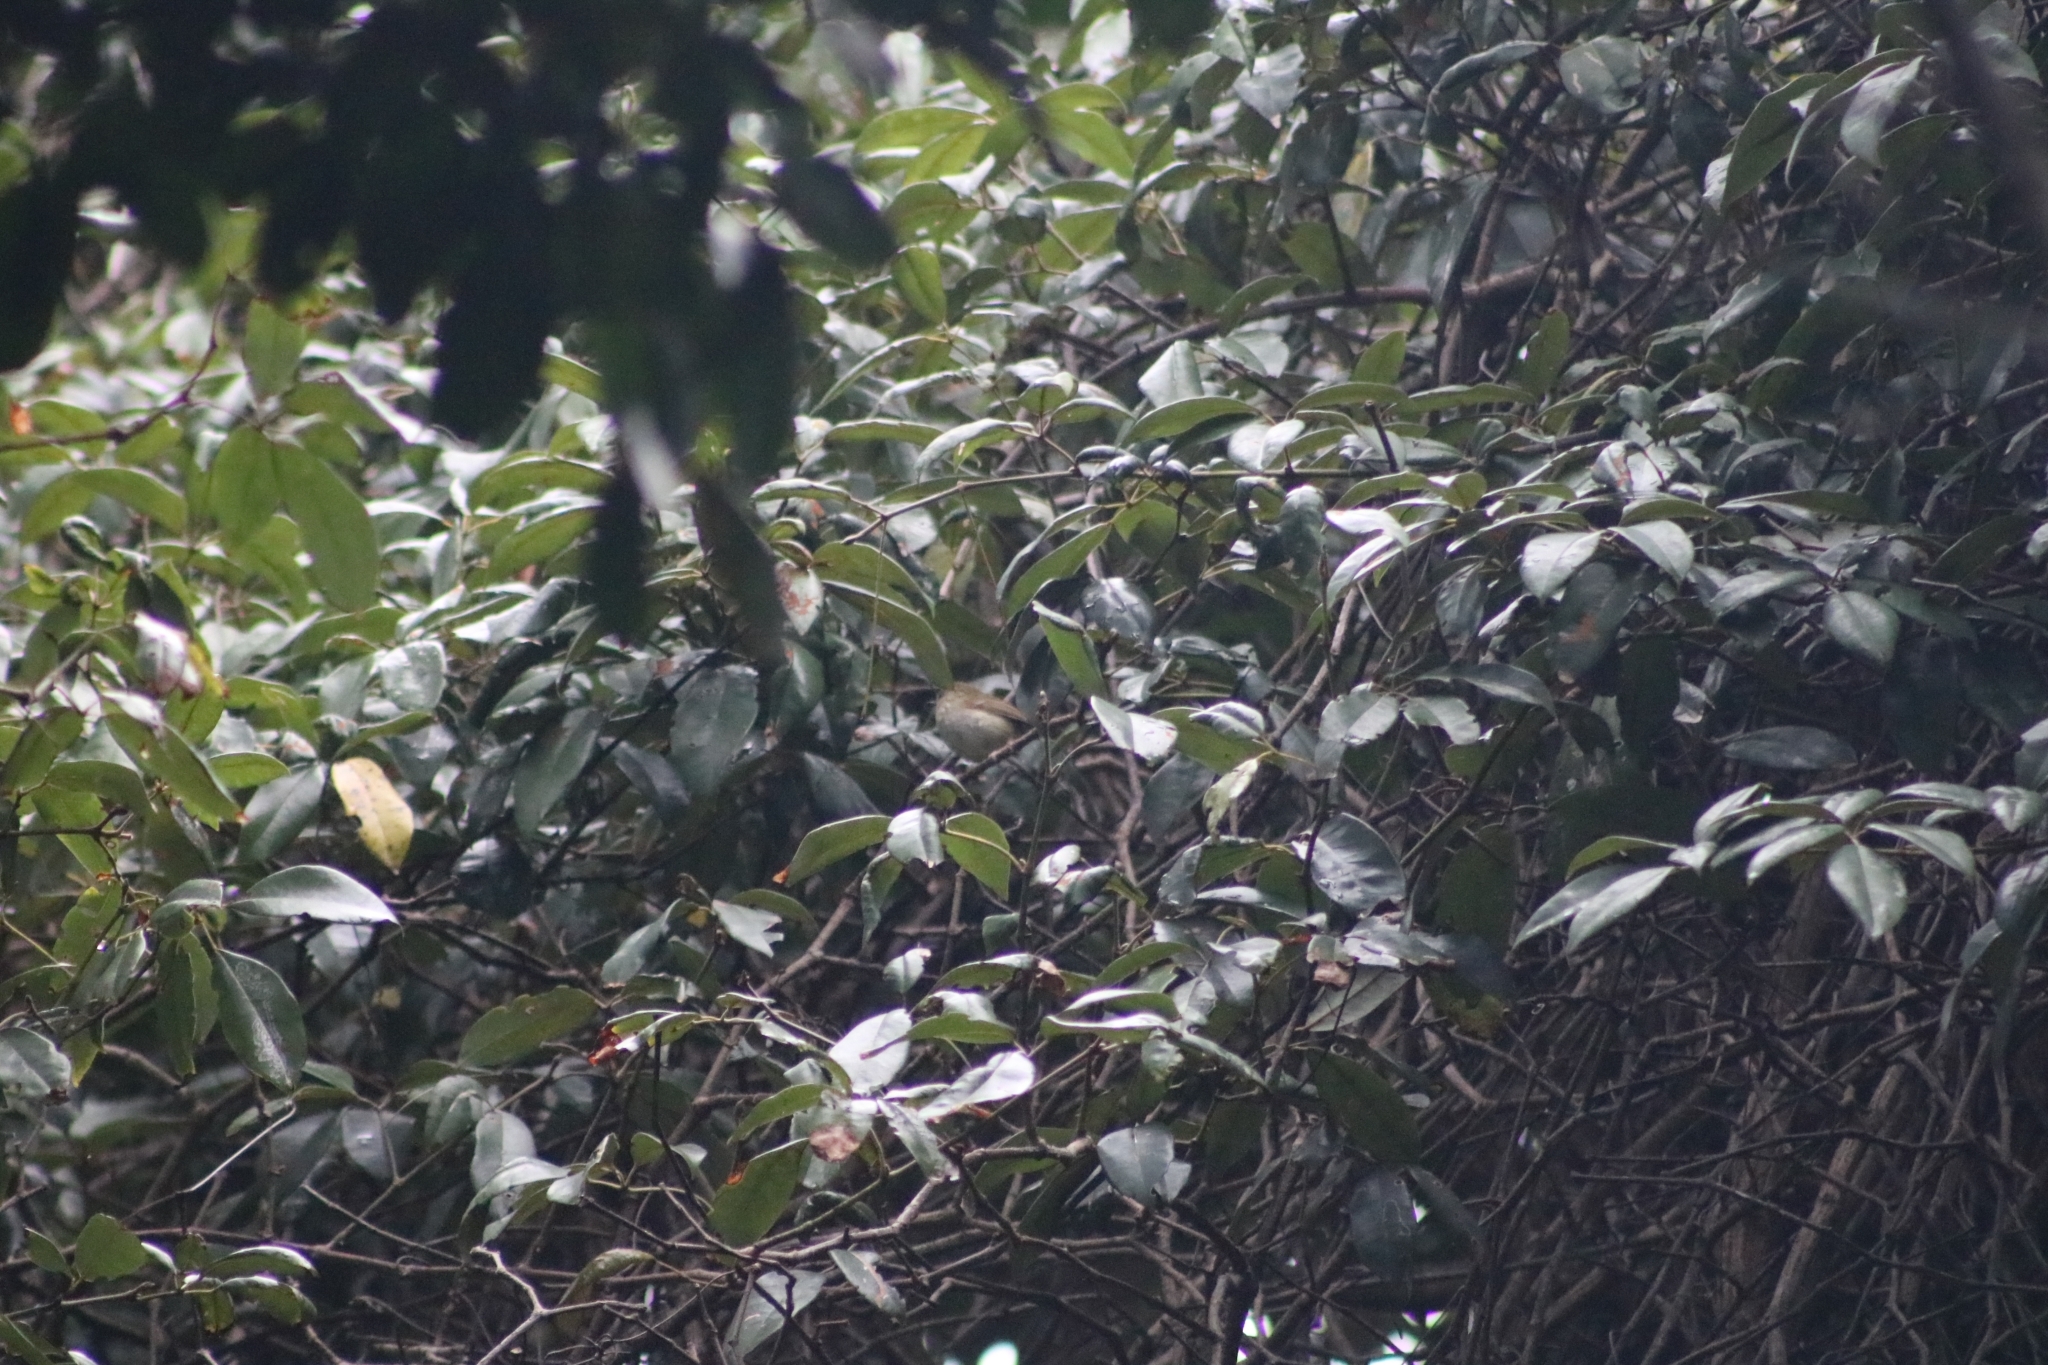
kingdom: Animalia
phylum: Chordata
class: Aves
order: Passeriformes
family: Acanthizidae
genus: Sericornis
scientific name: Sericornis magnirostra
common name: Large-billed scrubwren
